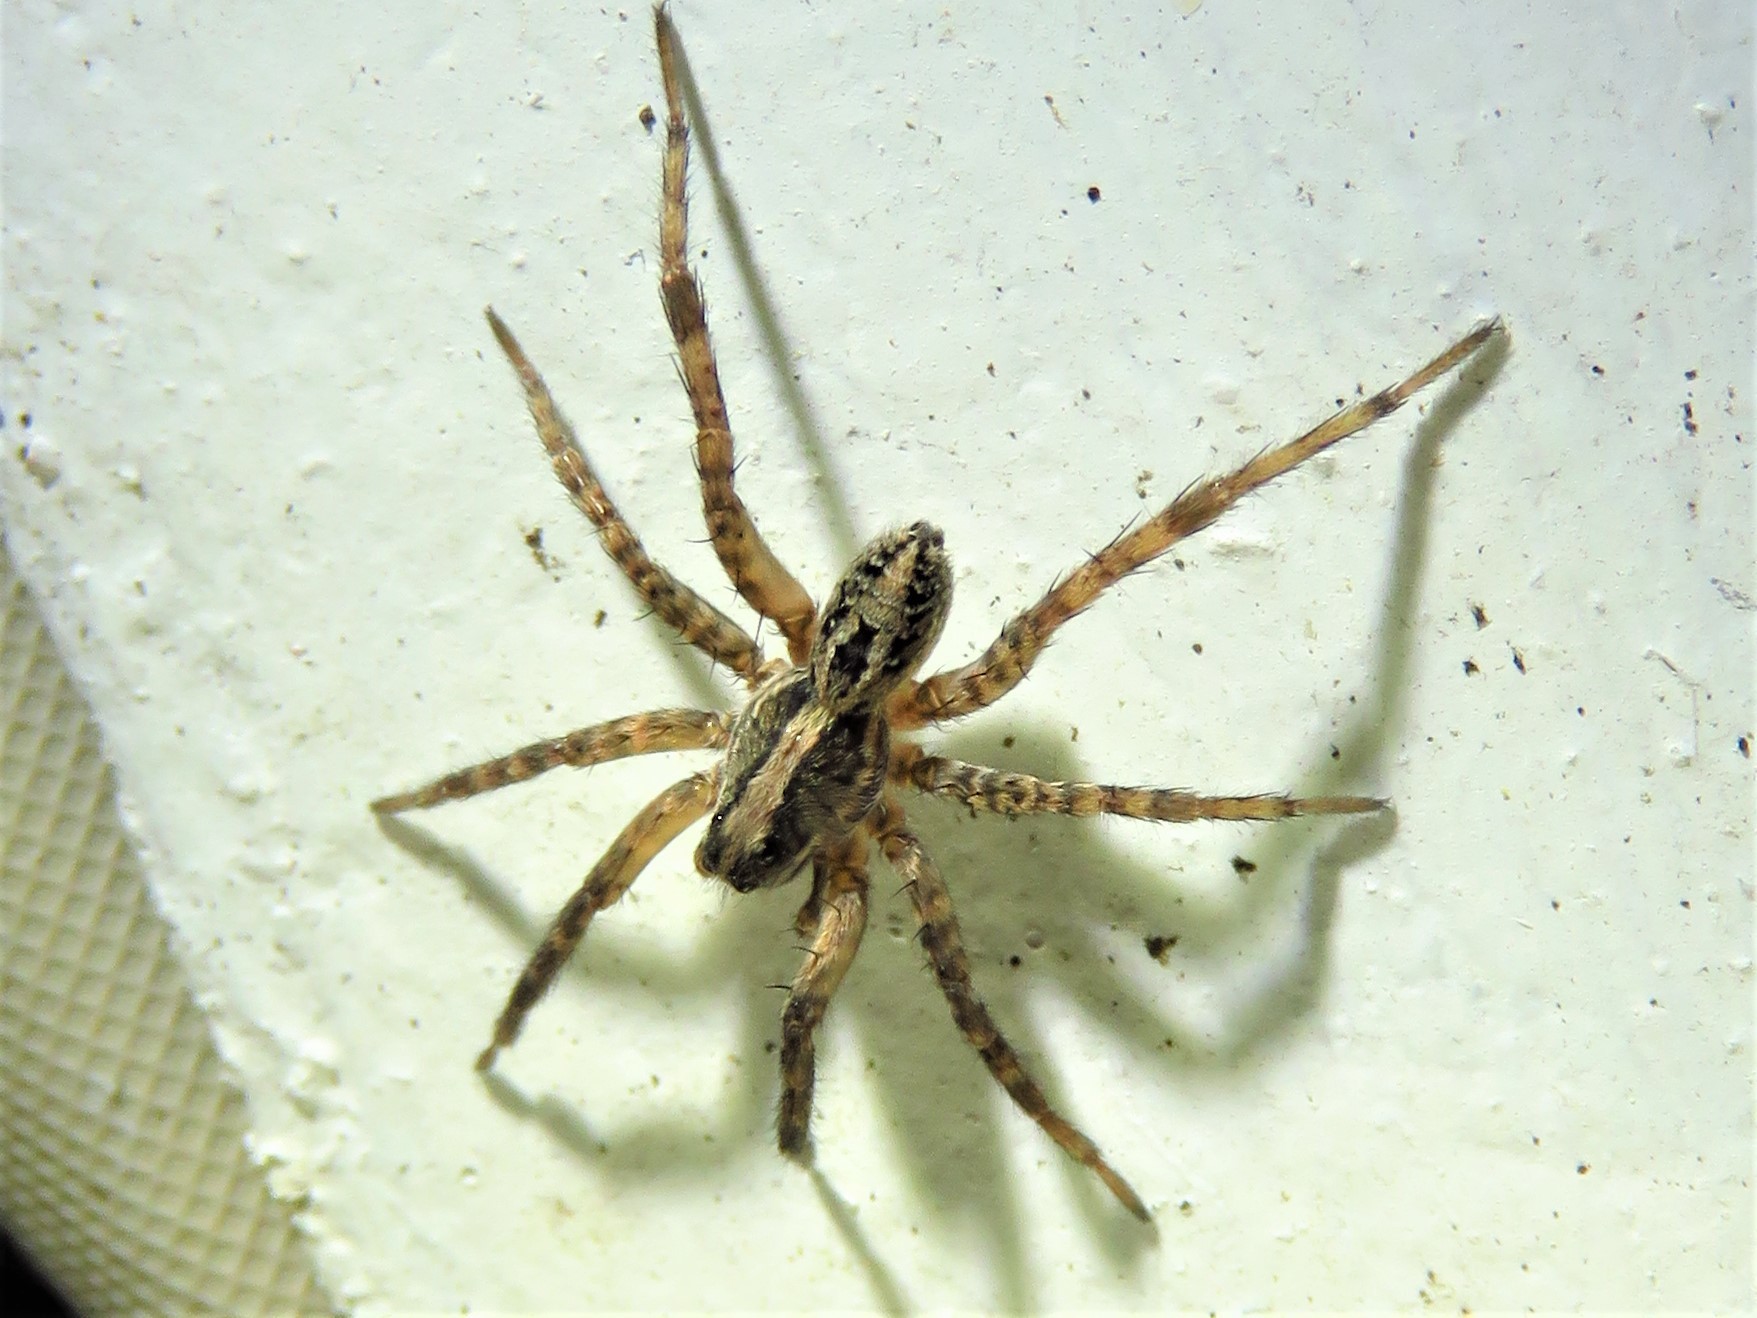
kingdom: Animalia
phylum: Arthropoda
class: Arachnida
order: Araneae
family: Lycosidae
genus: Schizocosa
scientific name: Schizocosa avida
